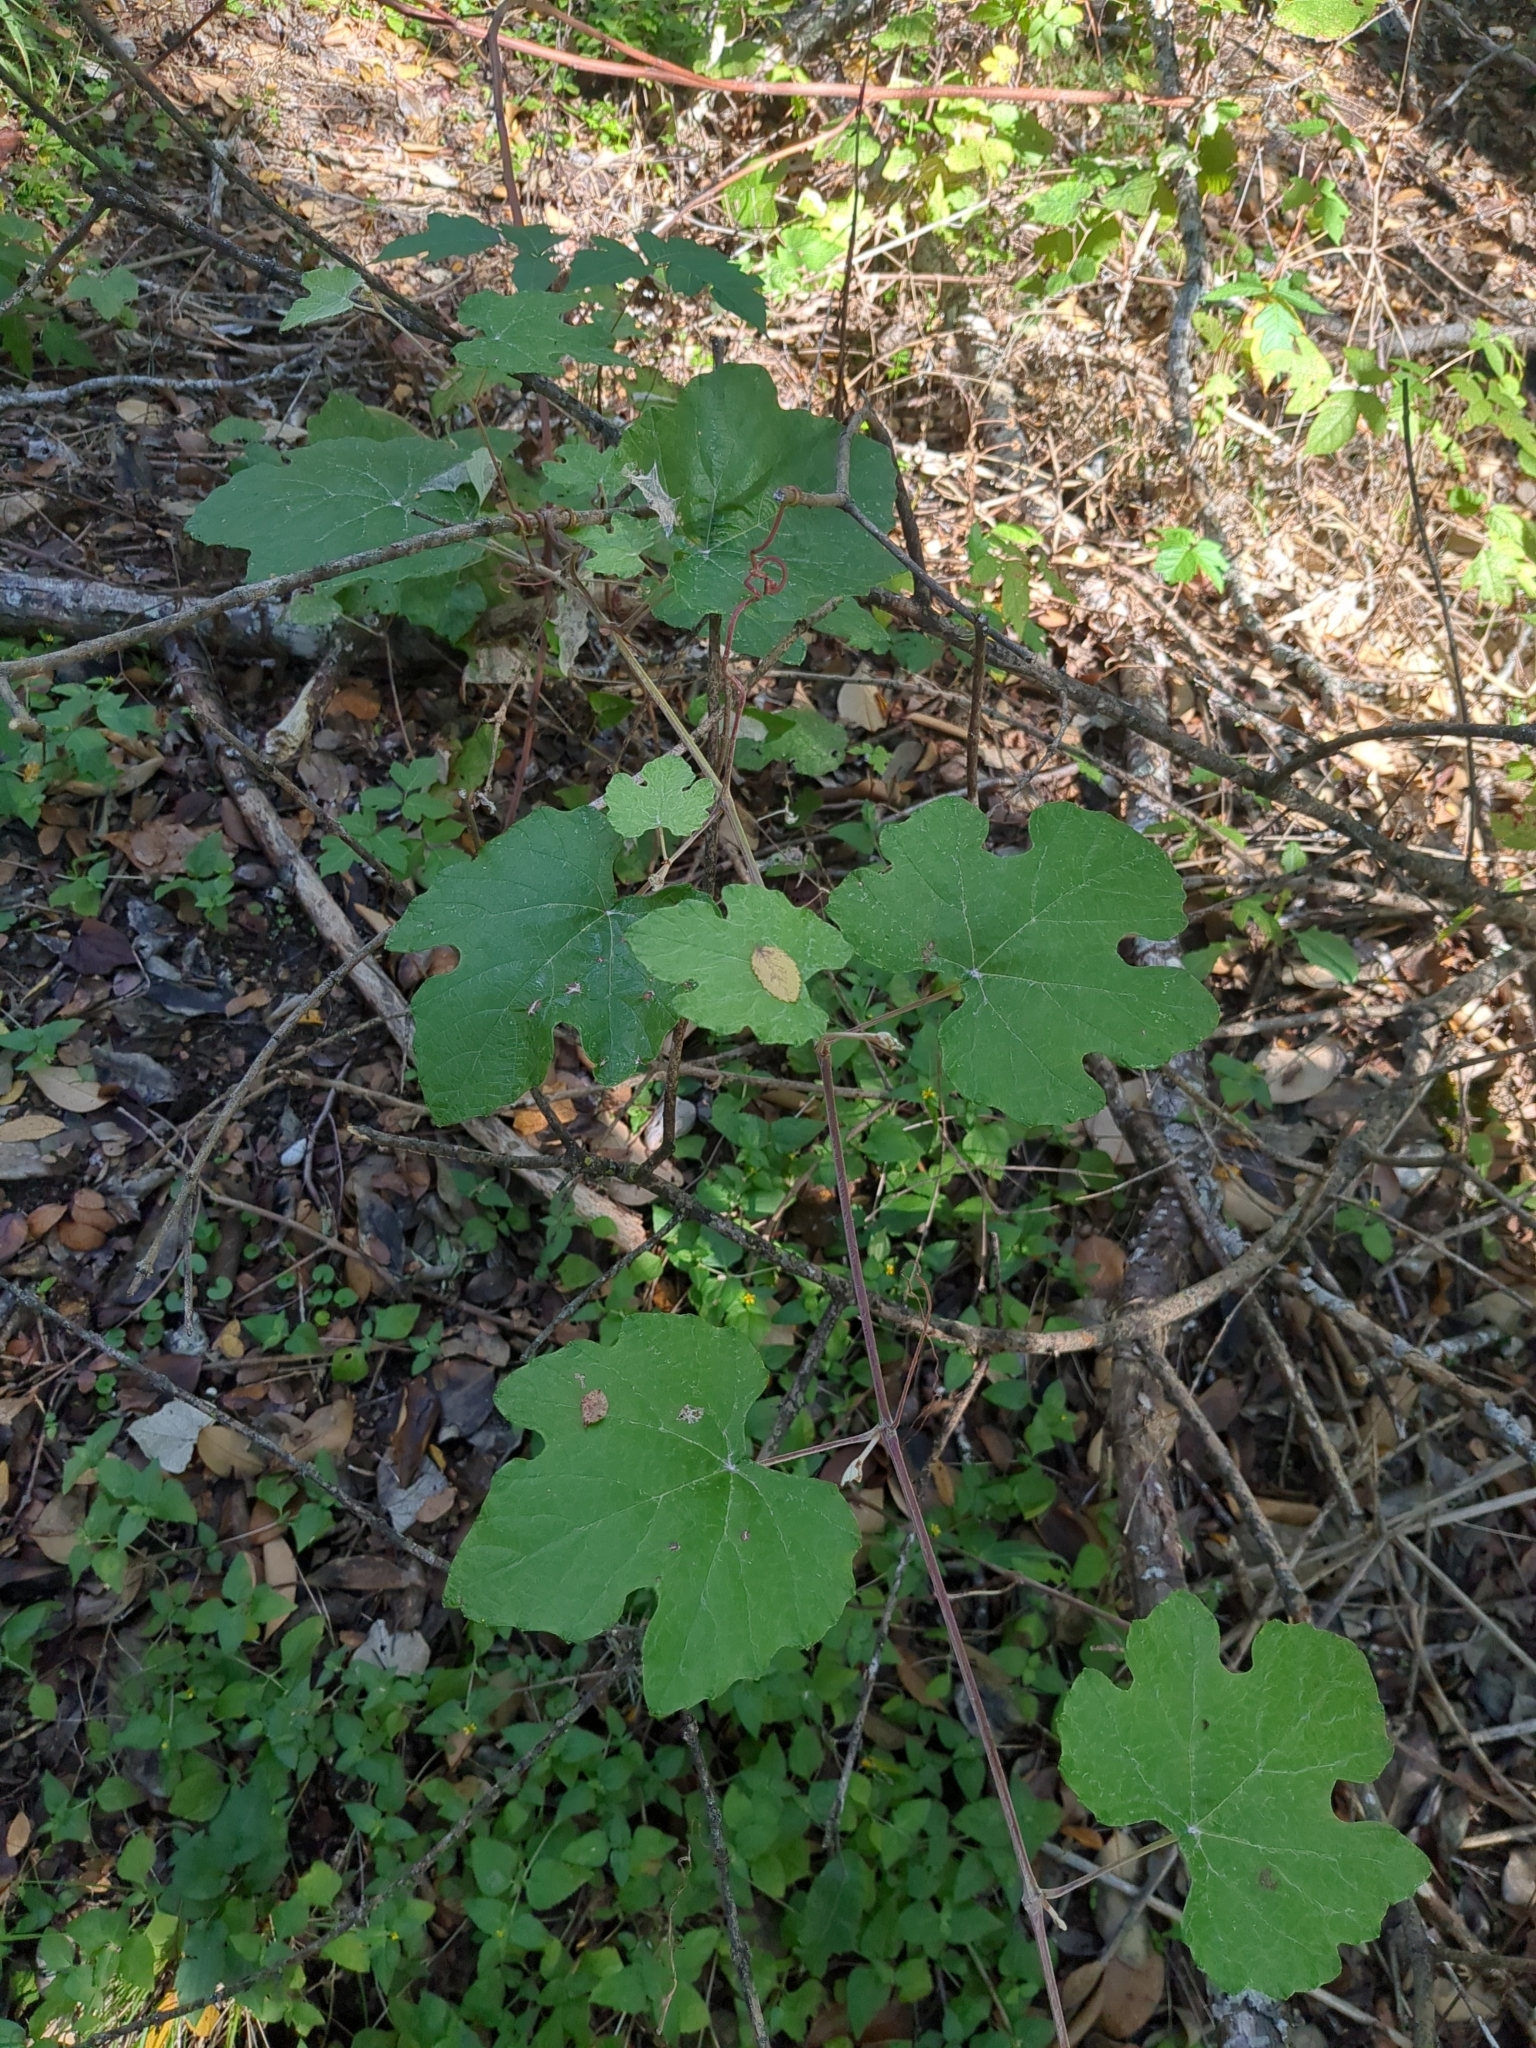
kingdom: Plantae
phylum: Tracheophyta
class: Magnoliopsida
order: Vitales
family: Vitaceae
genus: Vitis
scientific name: Vitis mustangensis
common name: Mustang grape
